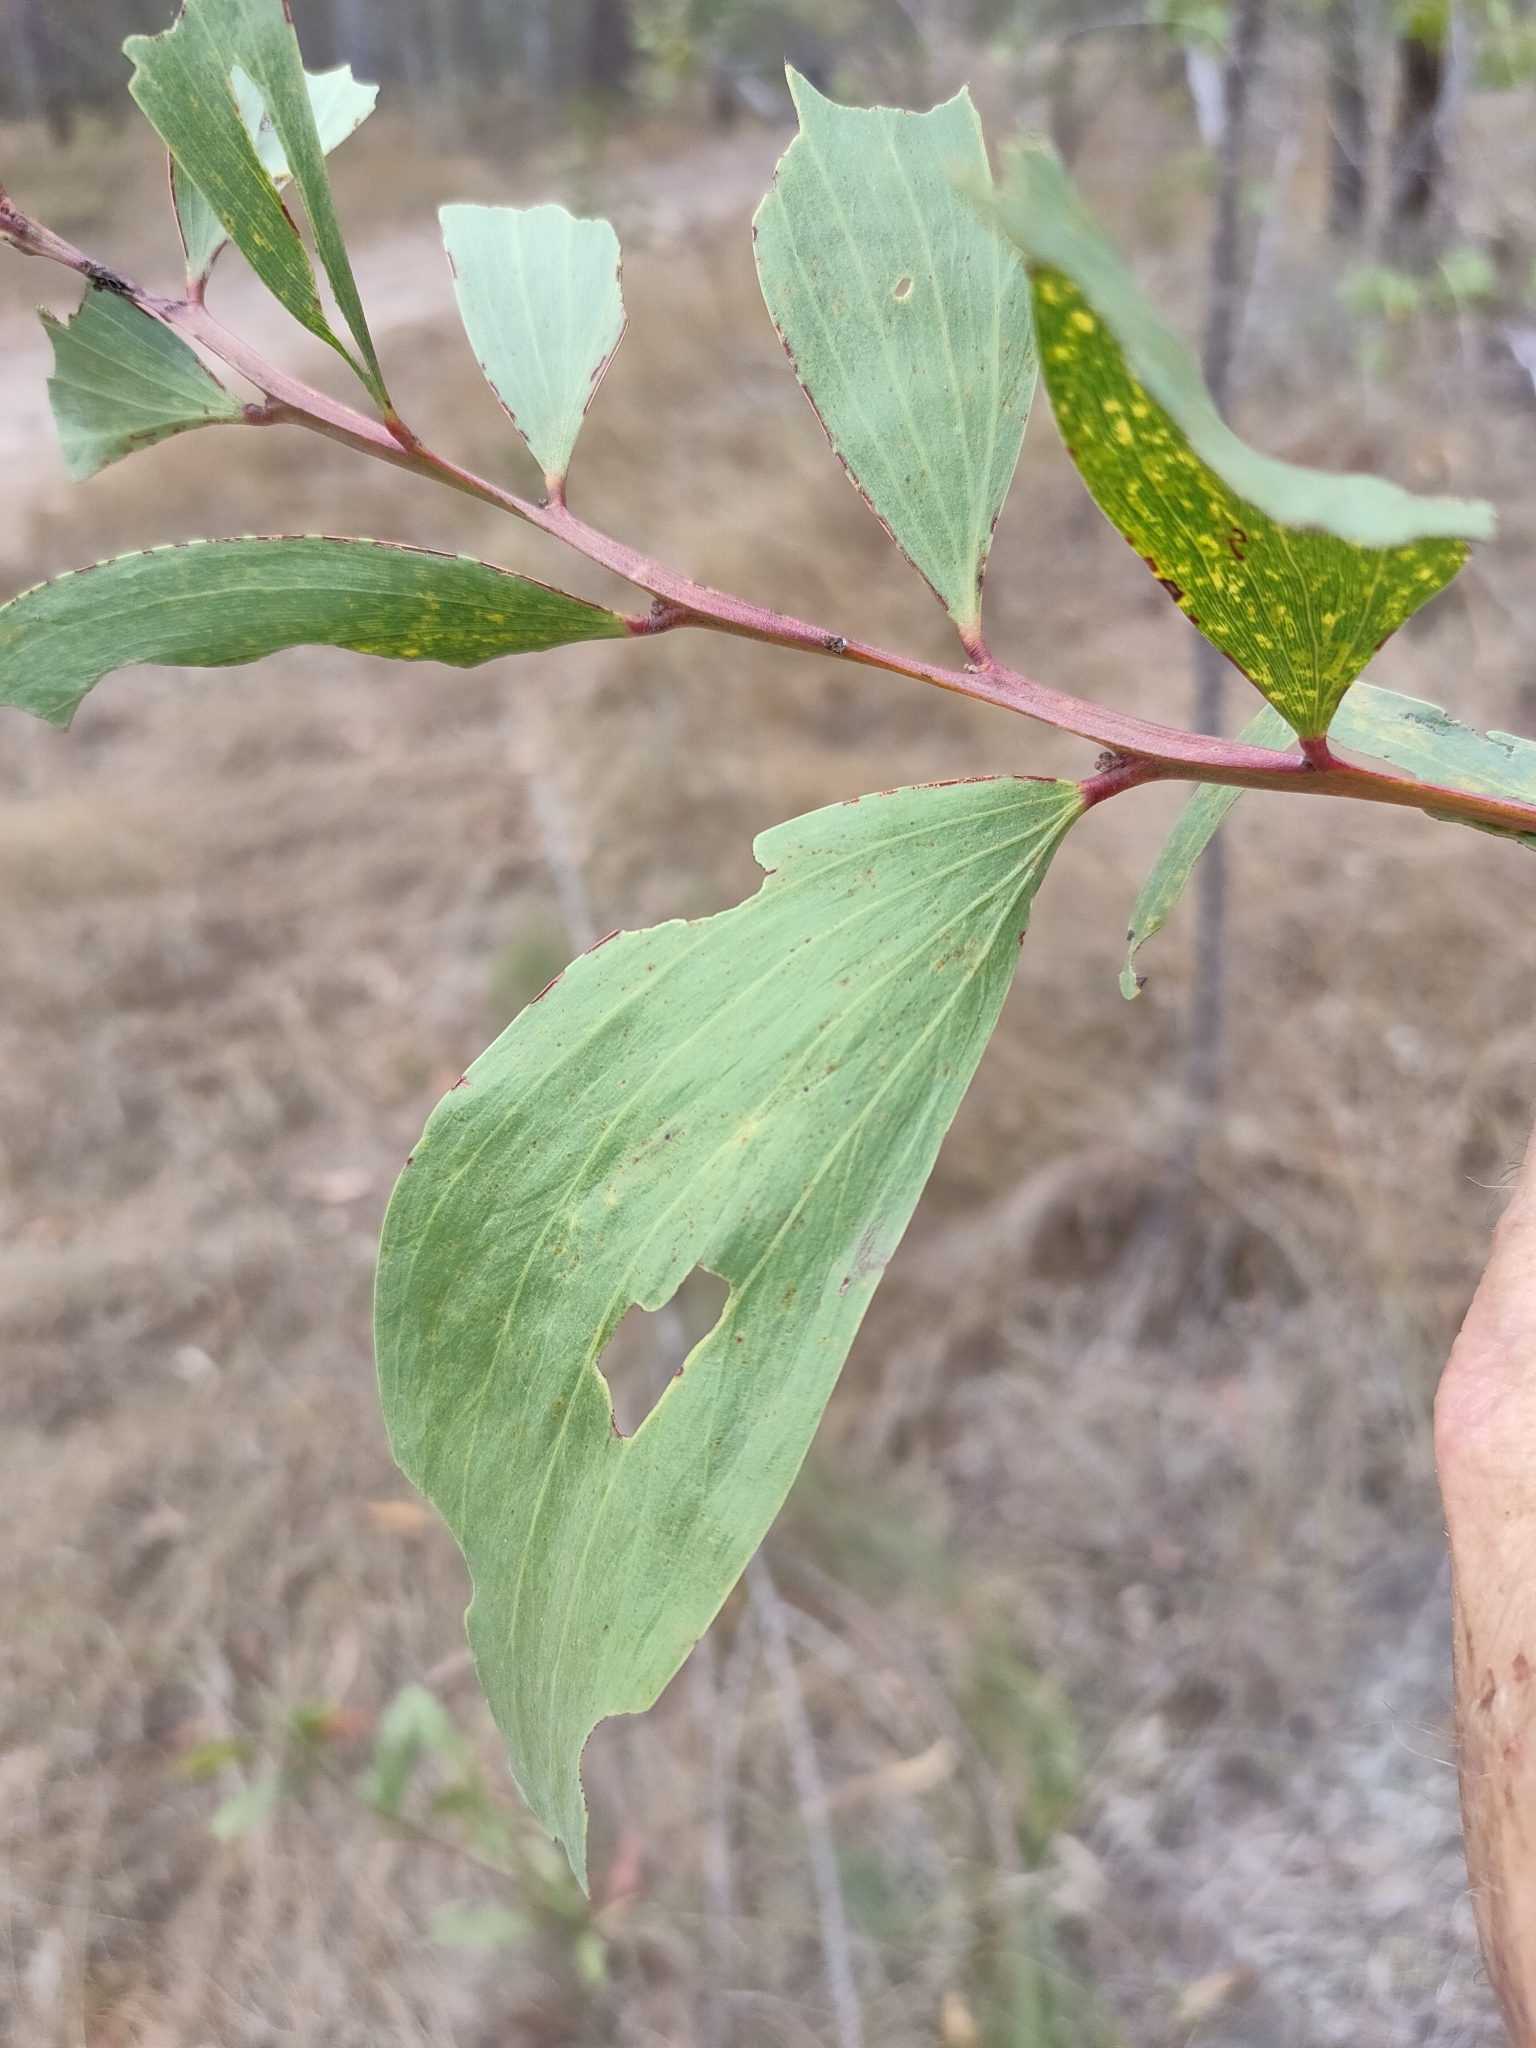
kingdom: Plantae
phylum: Tracheophyta
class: Magnoliopsida
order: Fabales
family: Fabaceae
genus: Acacia
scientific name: Acacia leiocalyx
